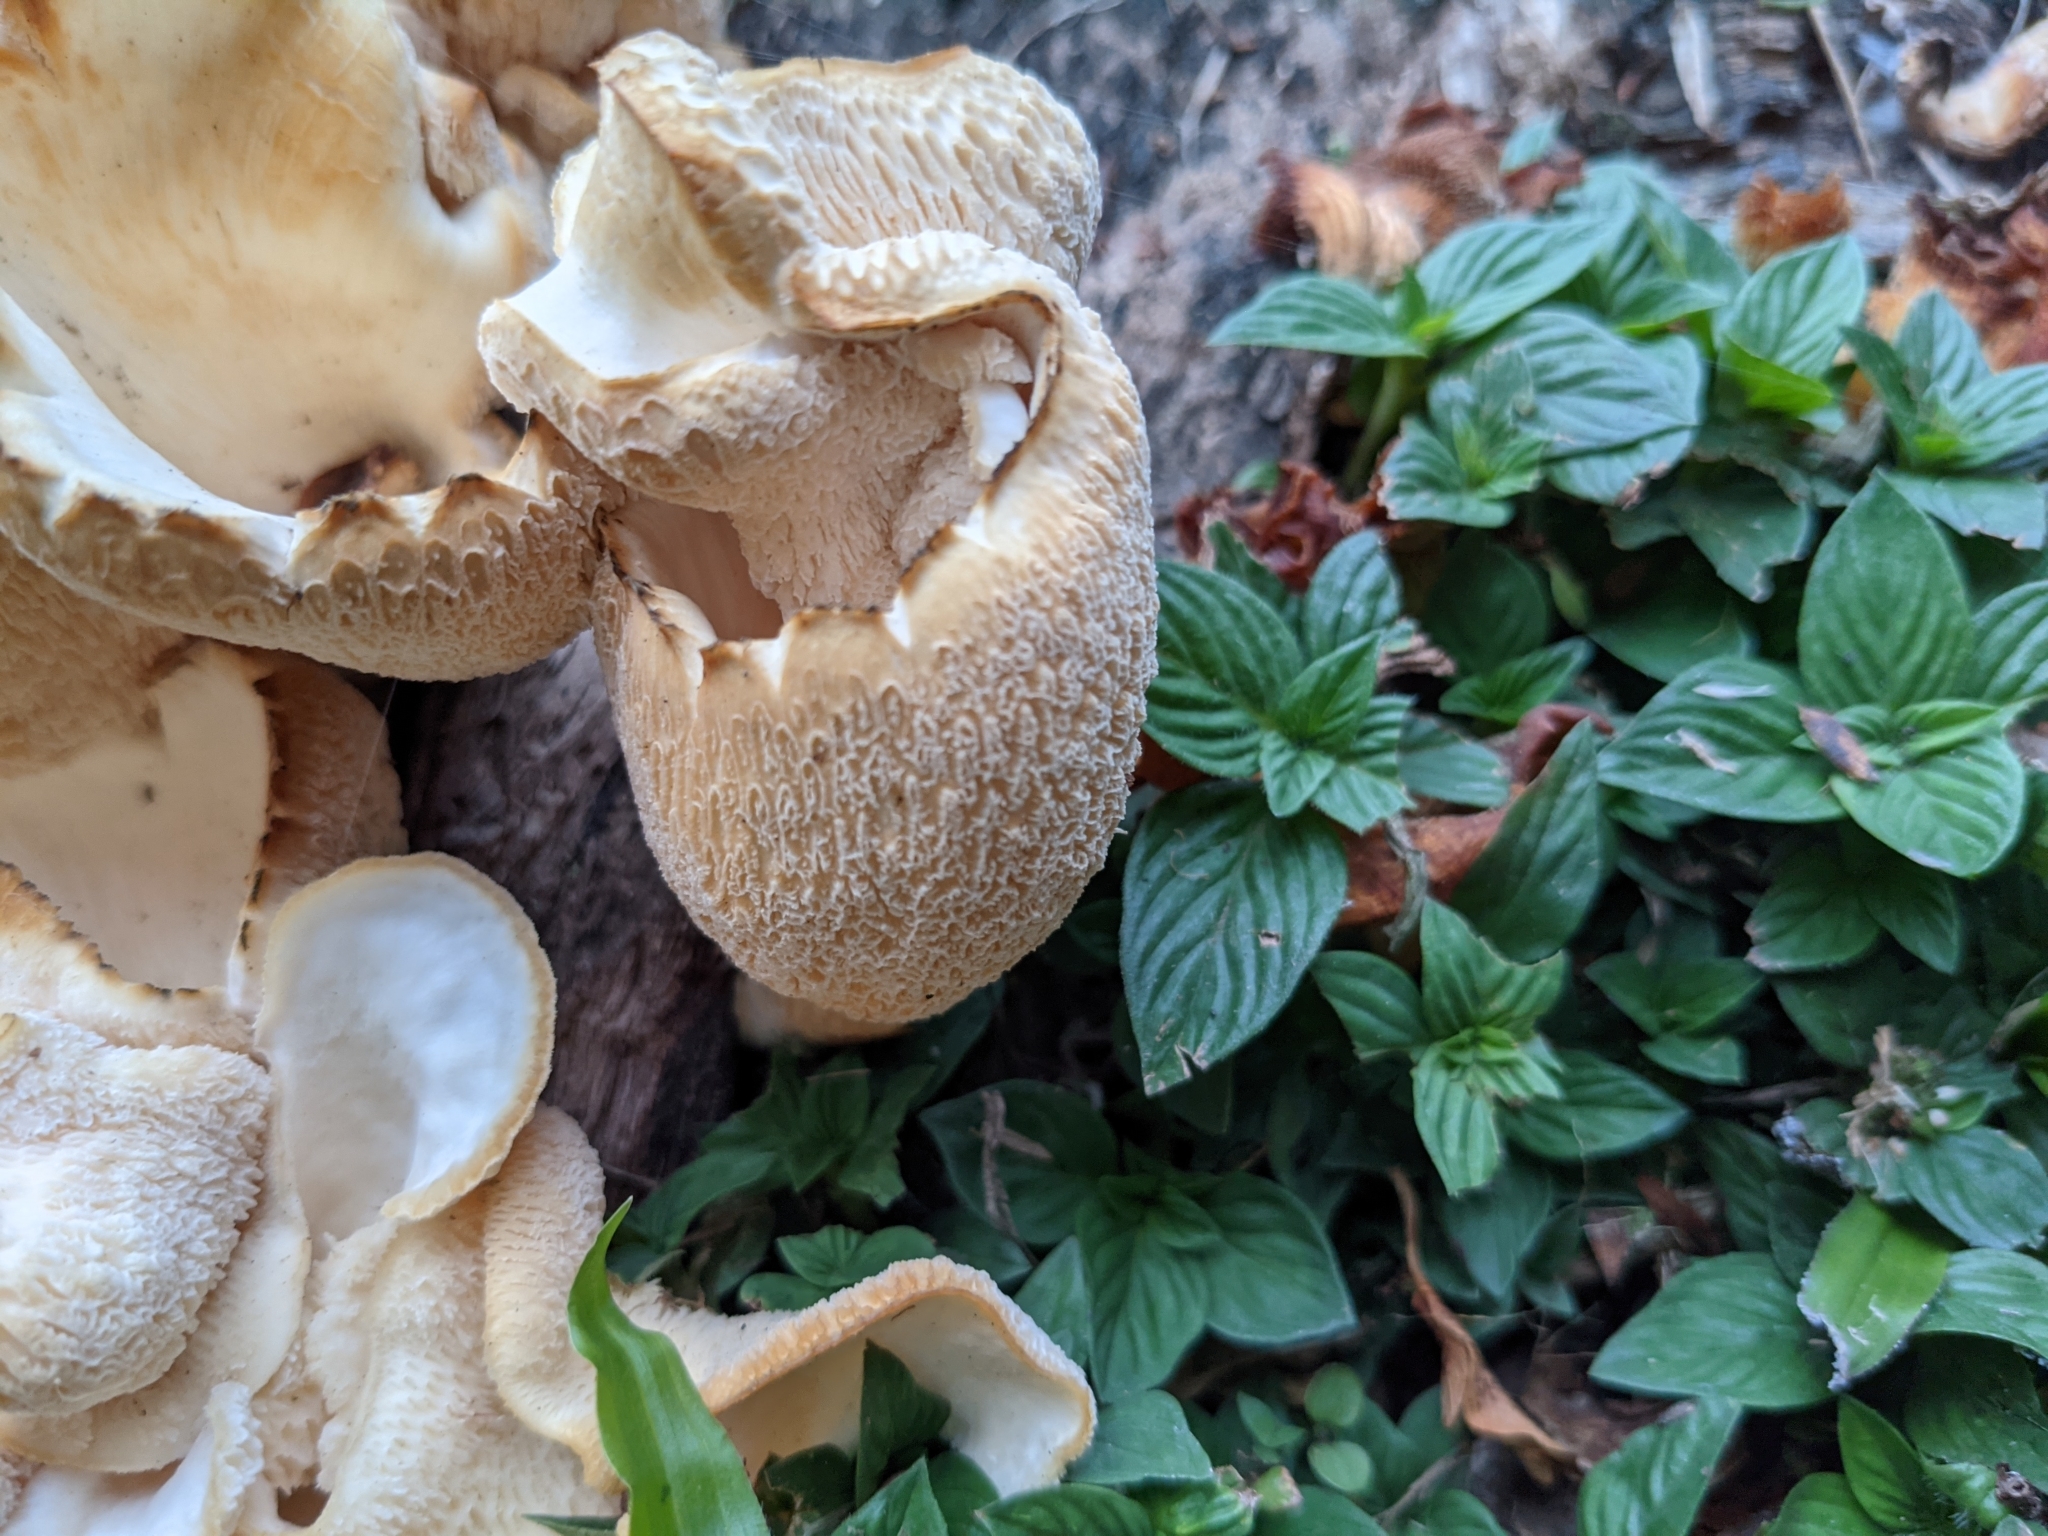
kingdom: Fungi
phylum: Basidiomycota
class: Agaricomycetes
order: Polyporales
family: Polyporaceae
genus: Favolus
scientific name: Favolus tenuiculus
